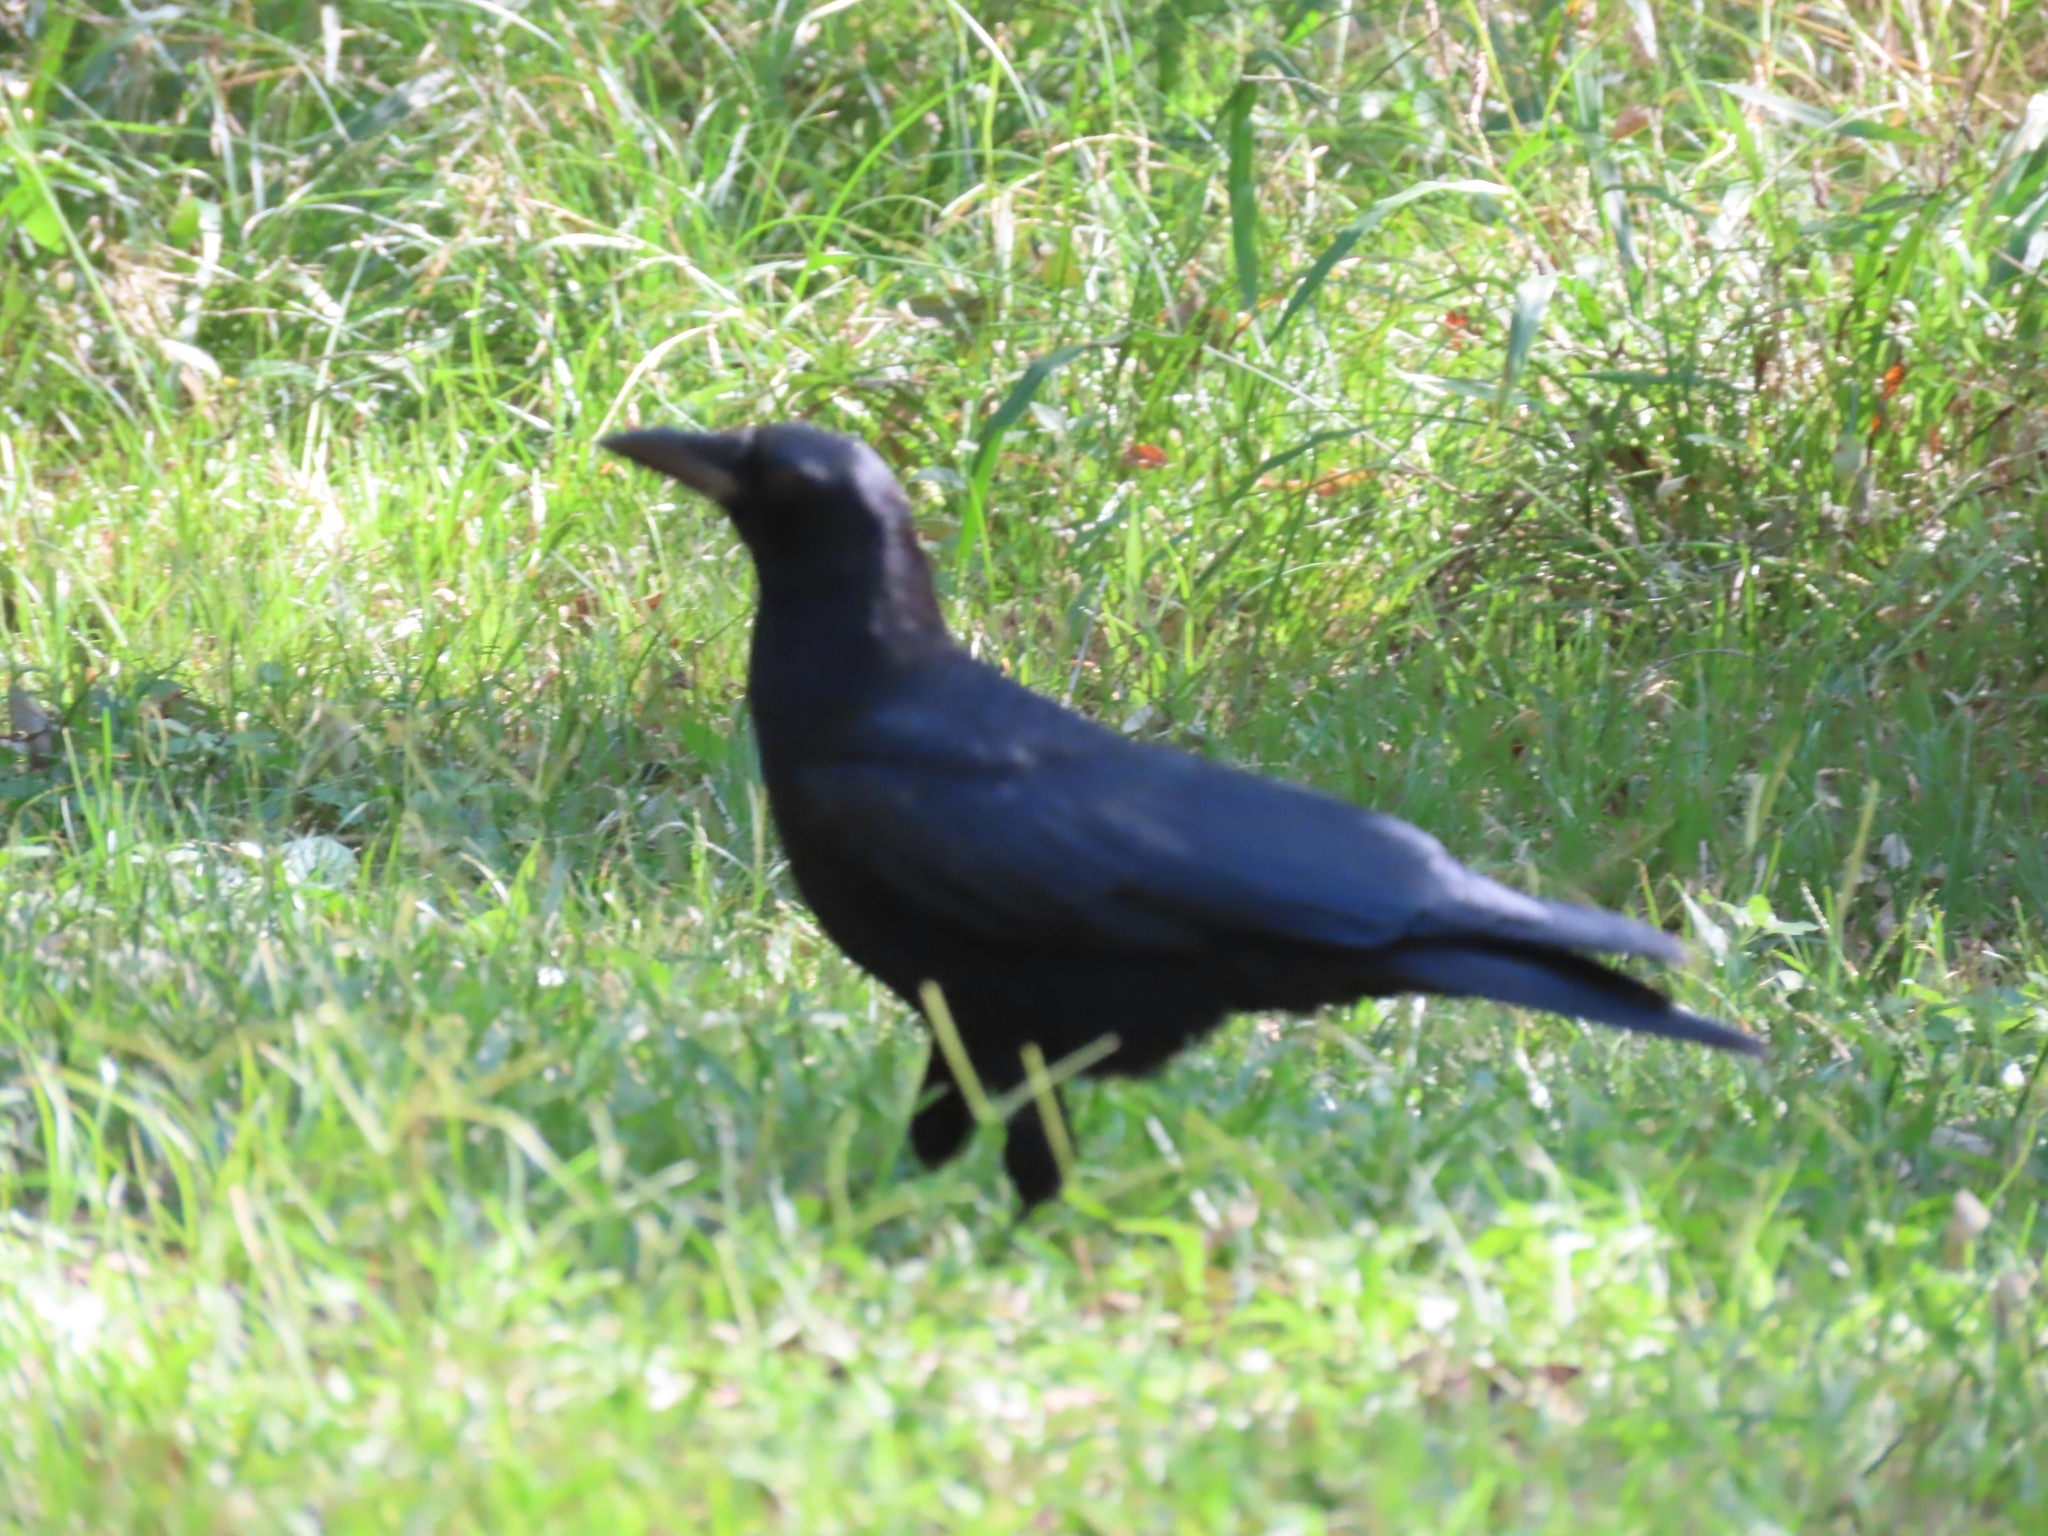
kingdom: Animalia
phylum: Chordata
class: Aves
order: Passeriformes
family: Corvidae
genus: Corvus
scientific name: Corvus brachyrhynchos
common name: American crow
